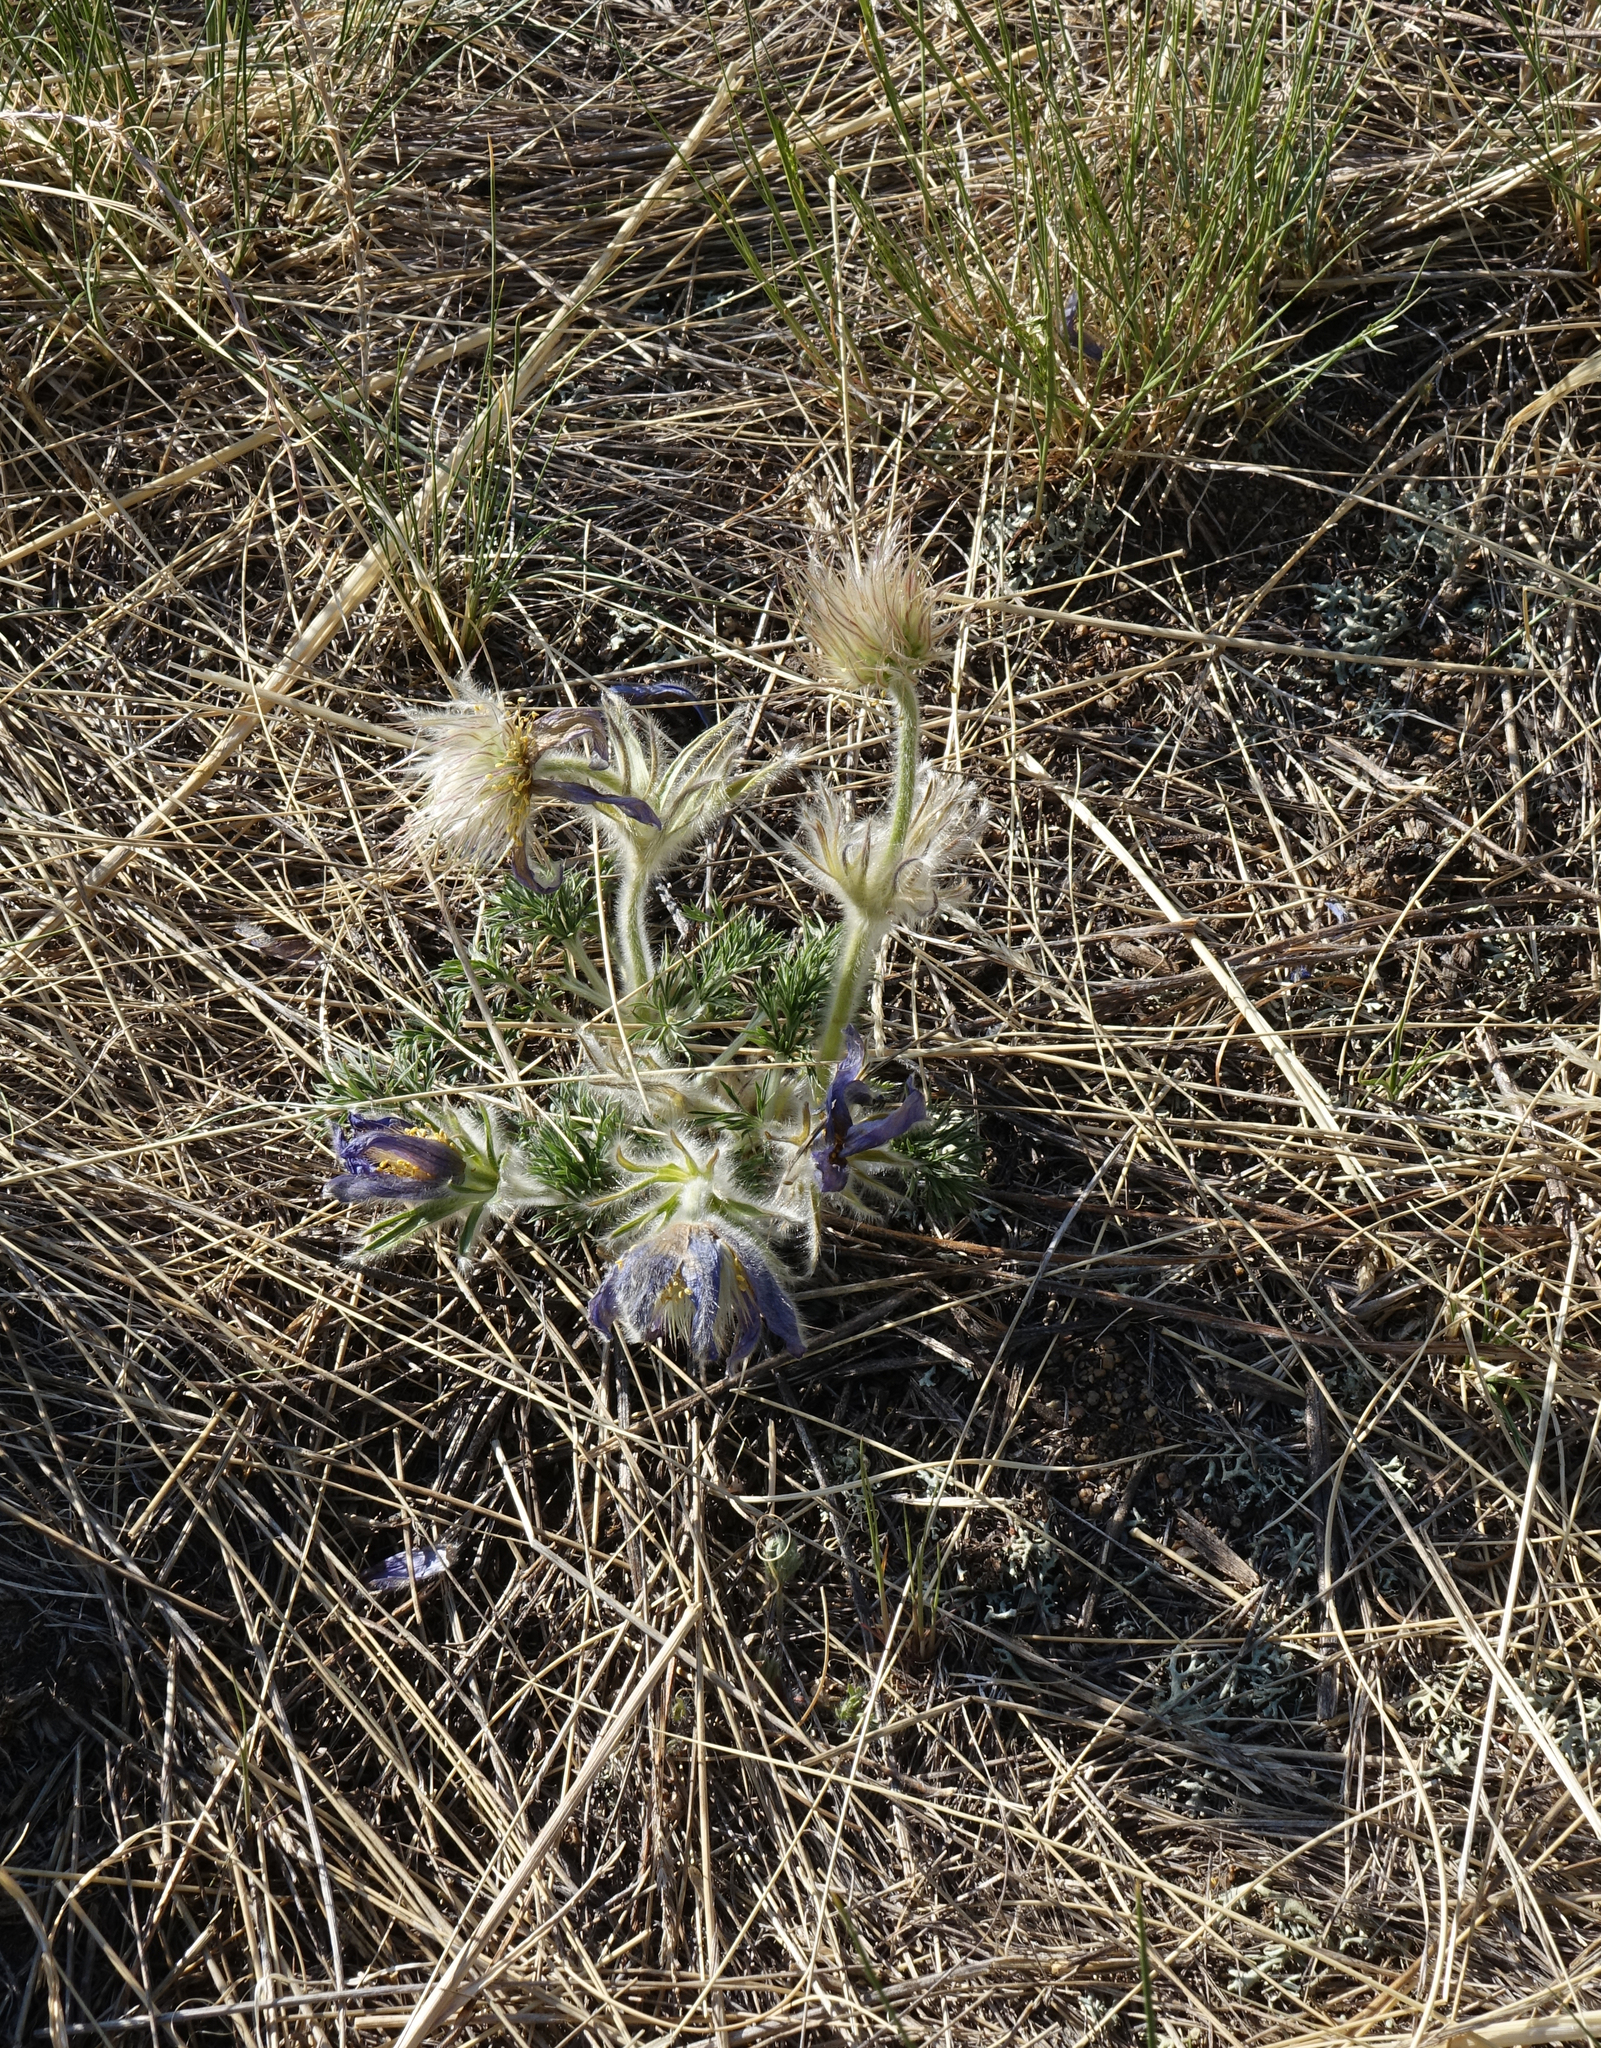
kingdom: Plantae
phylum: Tracheophyta
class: Magnoliopsida
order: Ranunculales
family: Ranunculaceae
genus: Pulsatilla
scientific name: Pulsatilla turczaninovii
